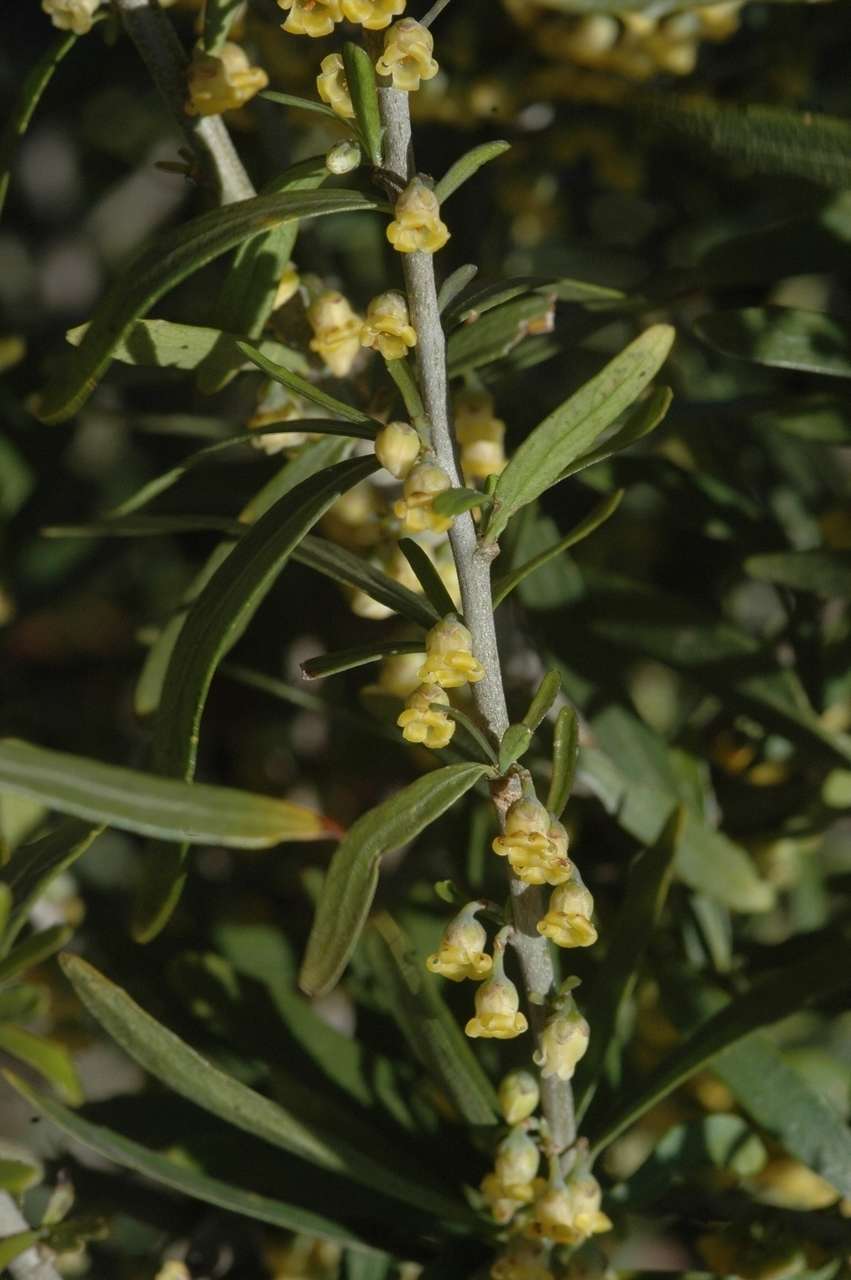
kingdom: Plantae
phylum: Tracheophyta
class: Magnoliopsida
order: Malpighiales
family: Violaceae
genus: Melicytus
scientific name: Melicytus dentatus
